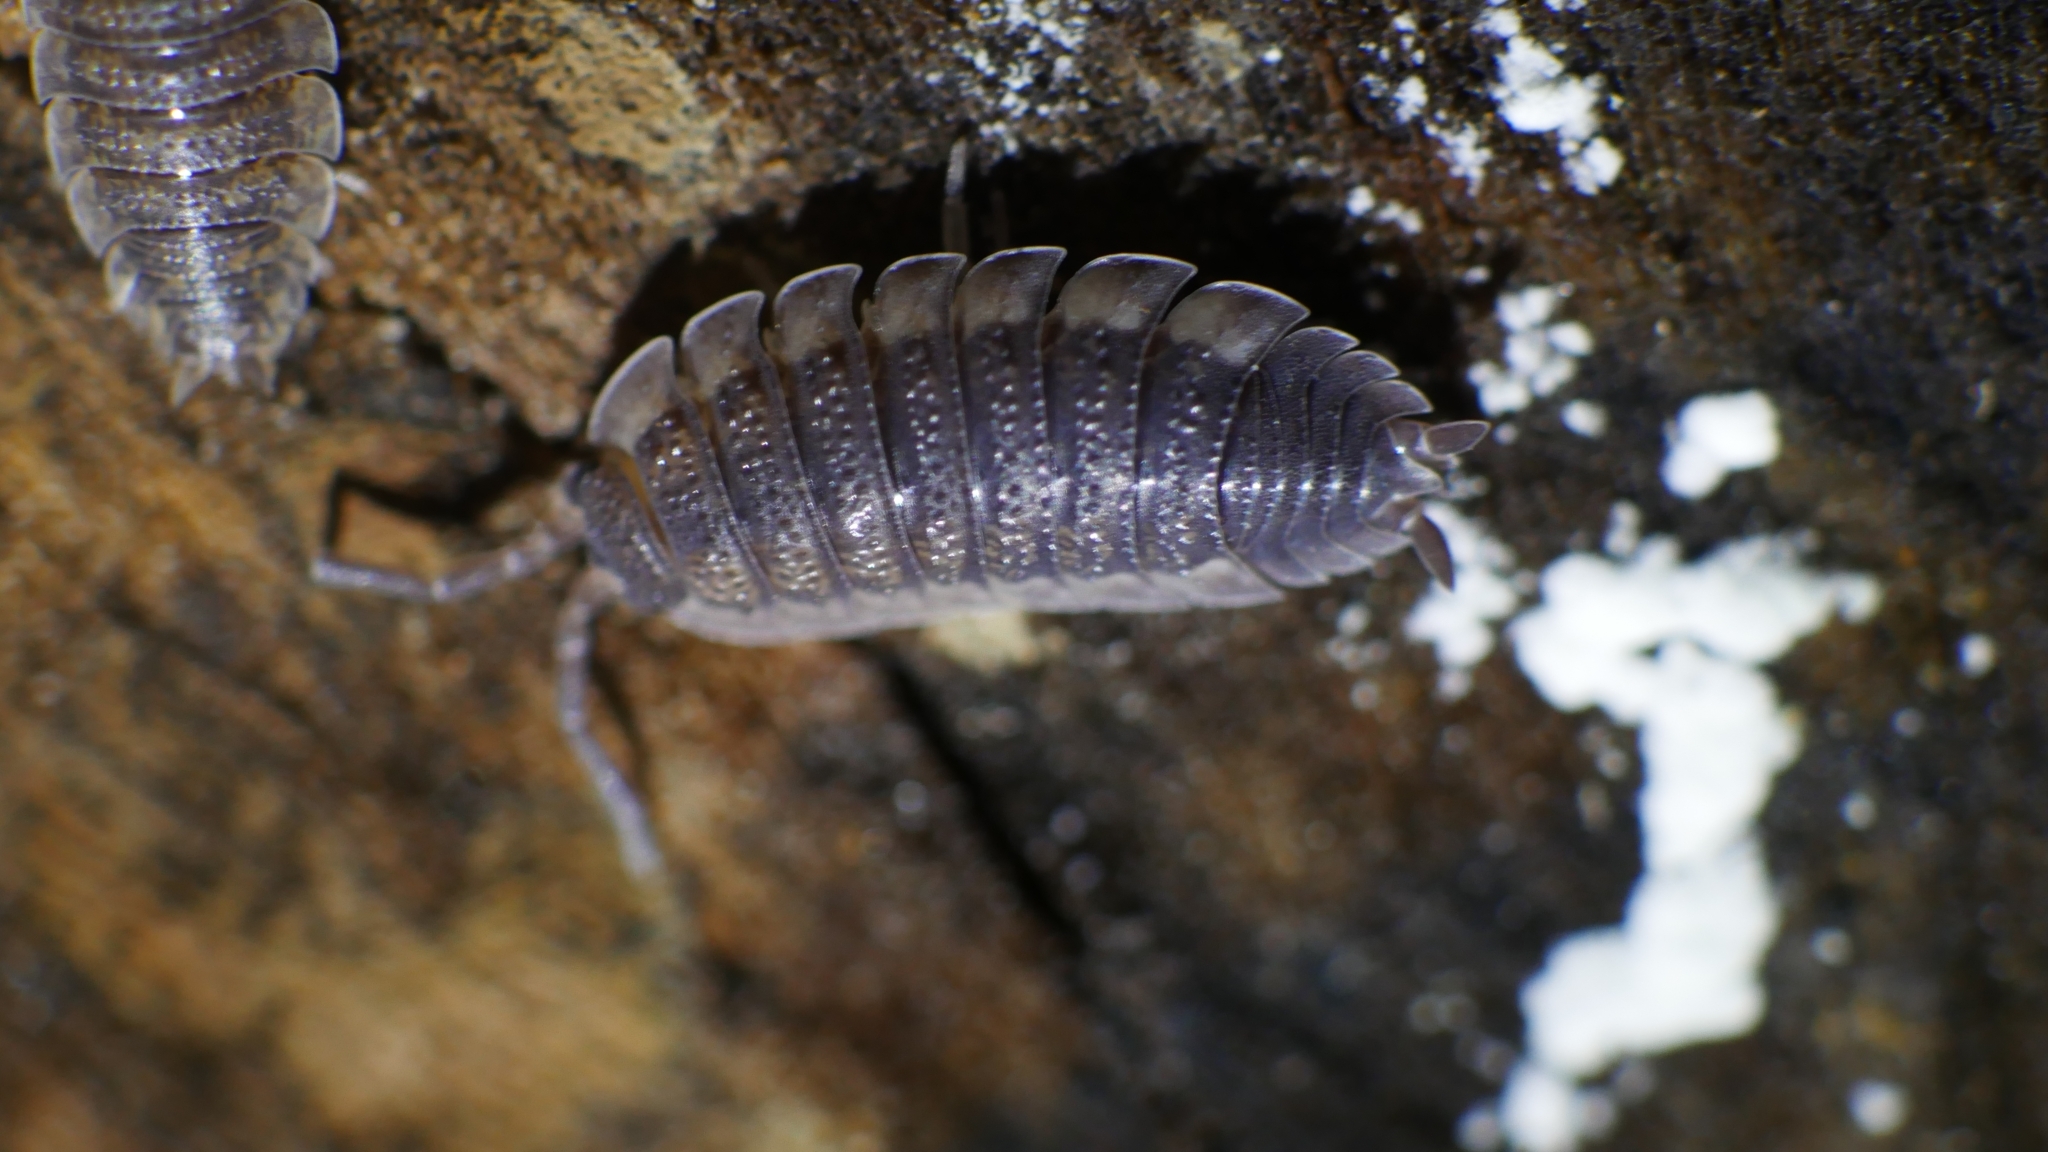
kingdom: Animalia
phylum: Arthropoda
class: Malacostraca
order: Isopoda
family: Porcellionidae
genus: Porcellio
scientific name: Porcellio scaber
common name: Common rough woodlouse
